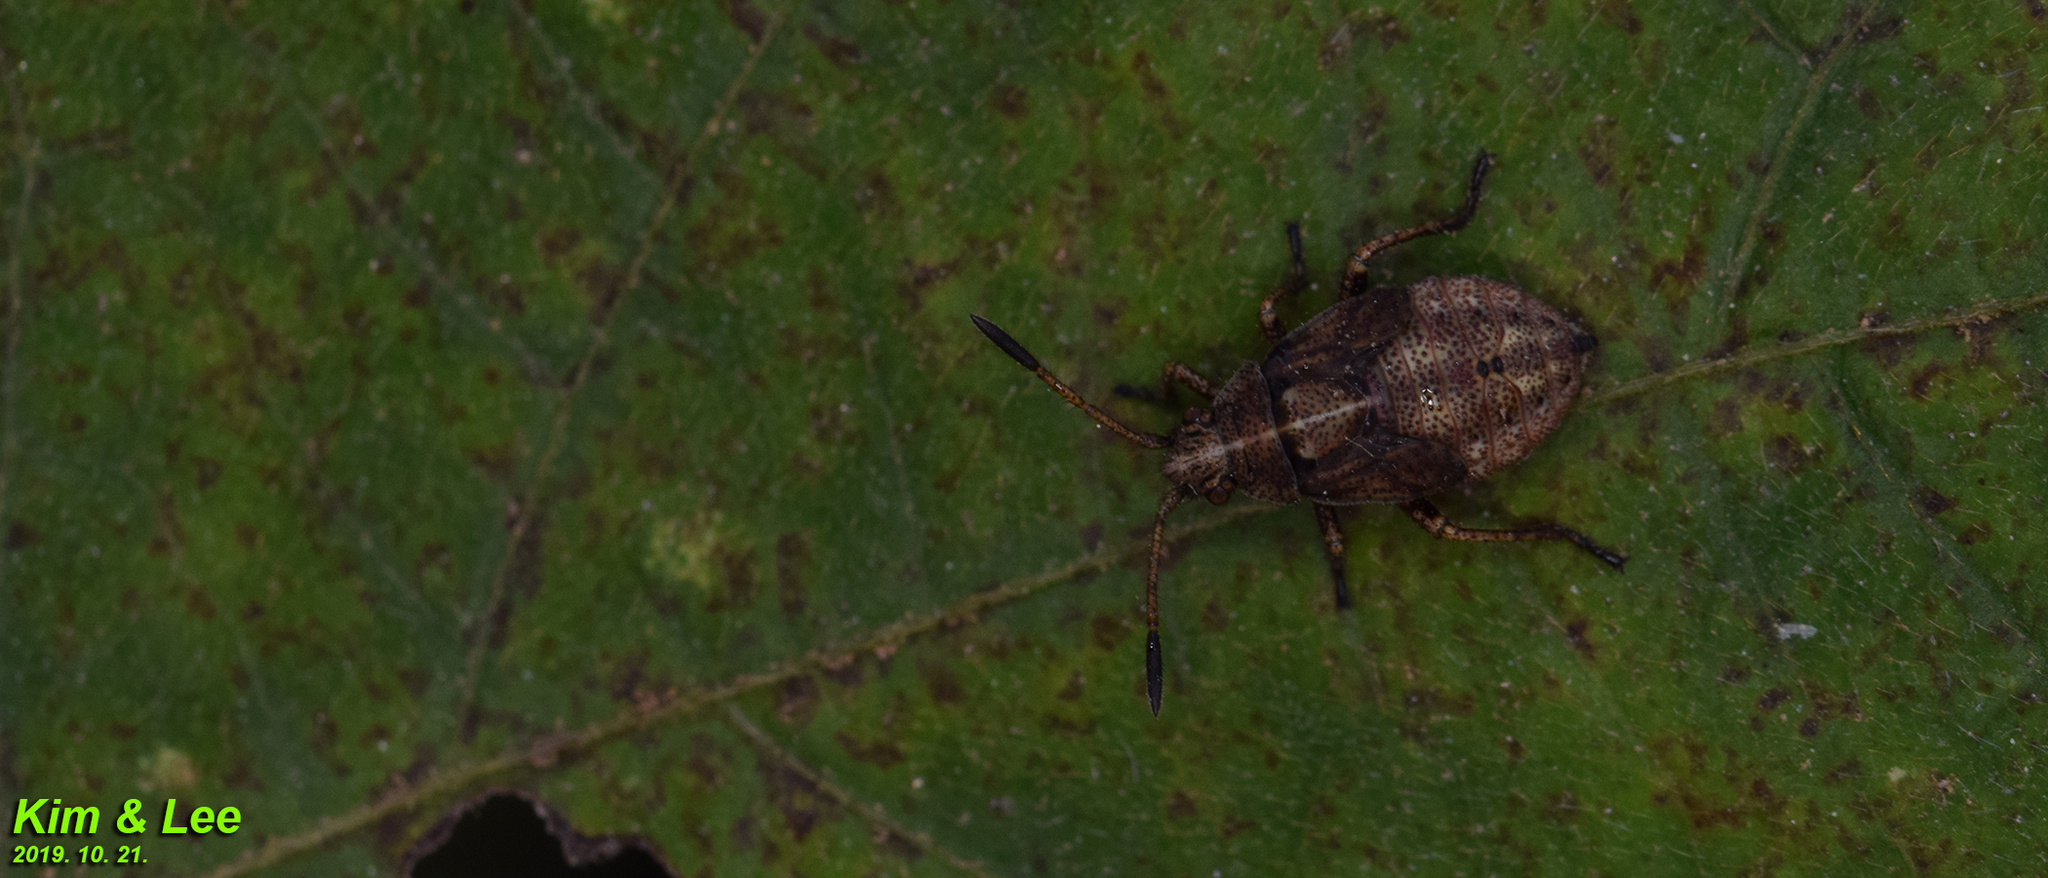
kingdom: Animalia
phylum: Arthropoda
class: Insecta
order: Hemiptera
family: Rhopalidae
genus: Stictopleurus
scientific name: Stictopleurus minutus
